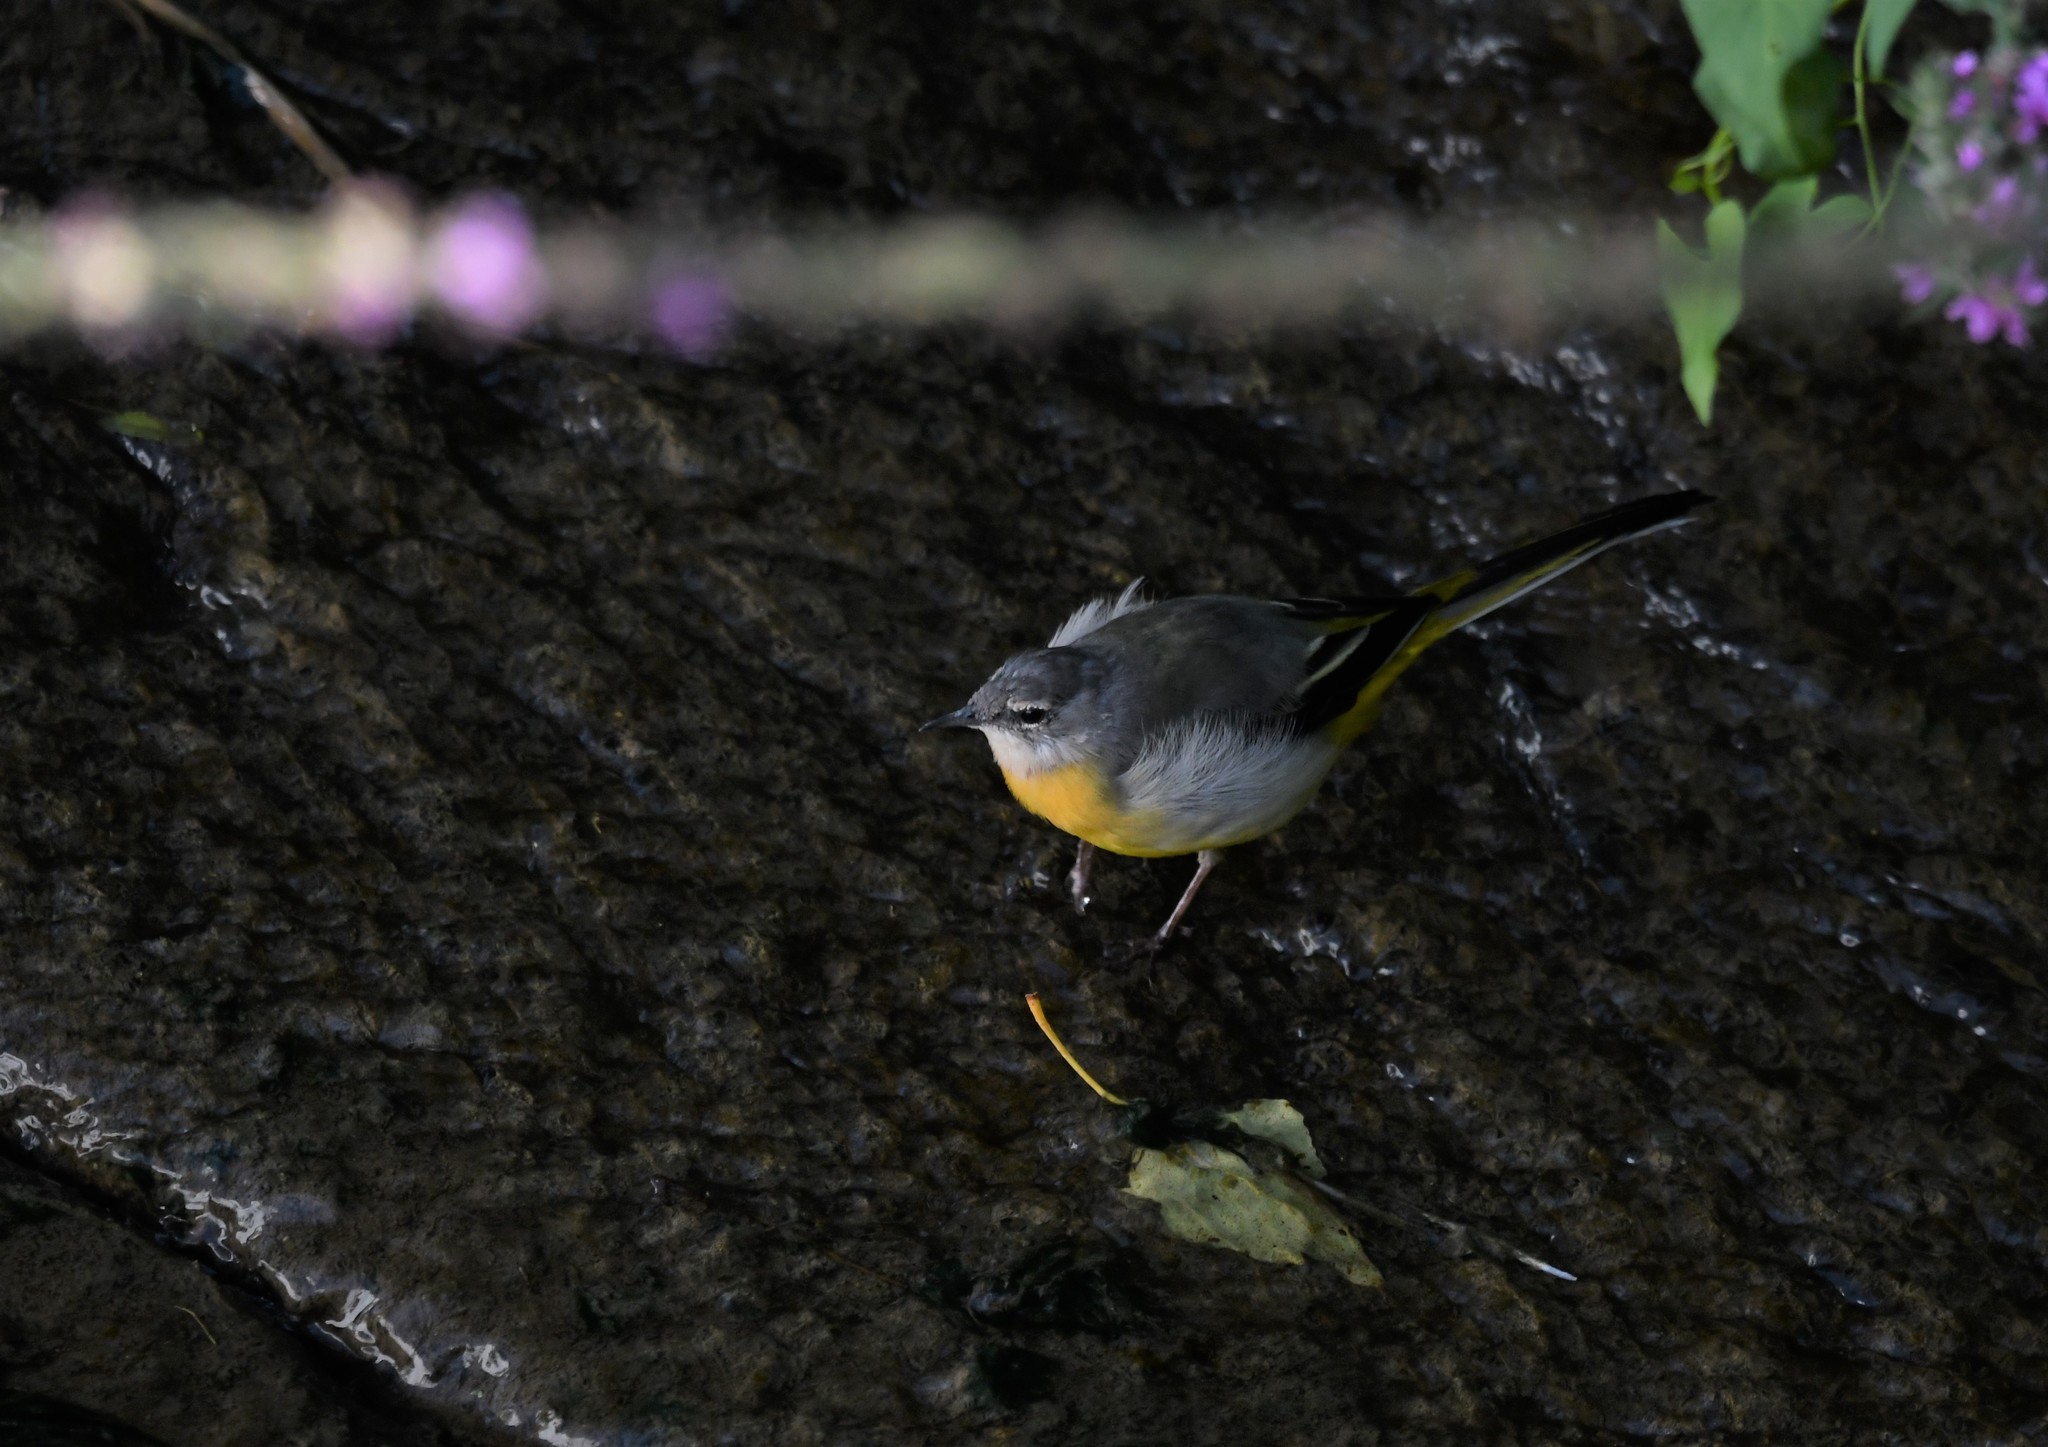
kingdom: Animalia
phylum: Chordata
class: Aves
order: Passeriformes
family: Motacillidae
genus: Motacilla
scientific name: Motacilla cinerea
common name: Grey wagtail
